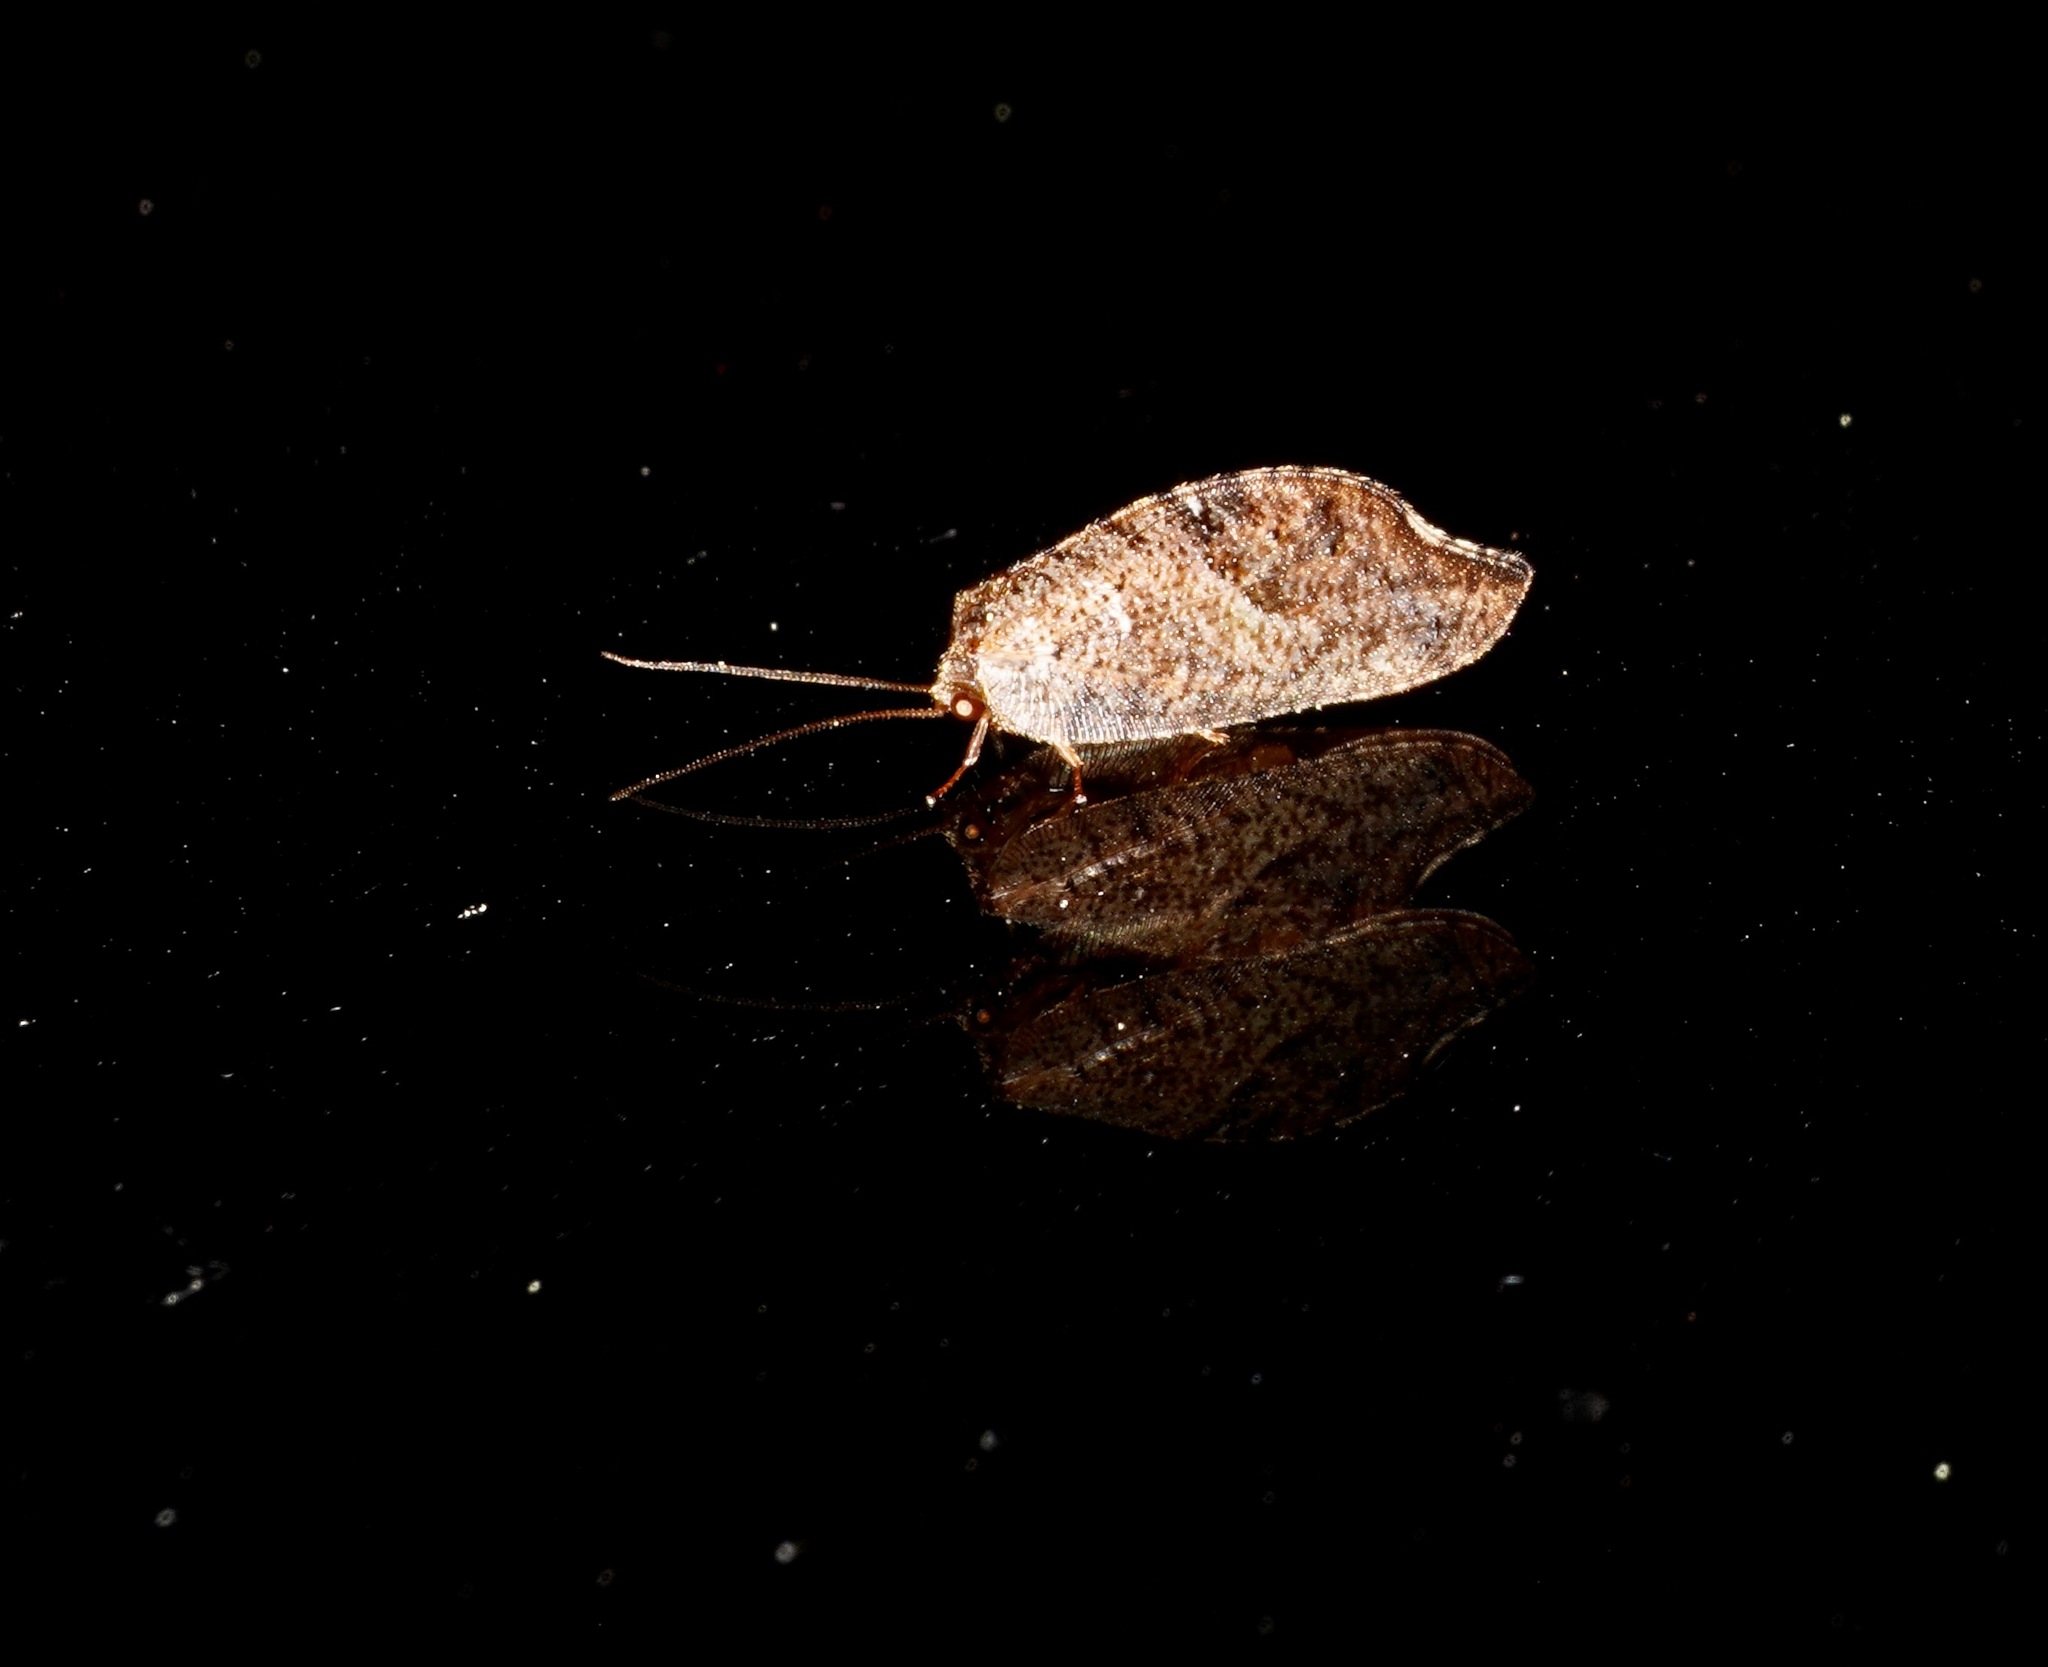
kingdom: Animalia
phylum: Arthropoda
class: Insecta
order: Neuroptera
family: Hemerobiidae
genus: Drepanacra
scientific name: Drepanacra binocula
